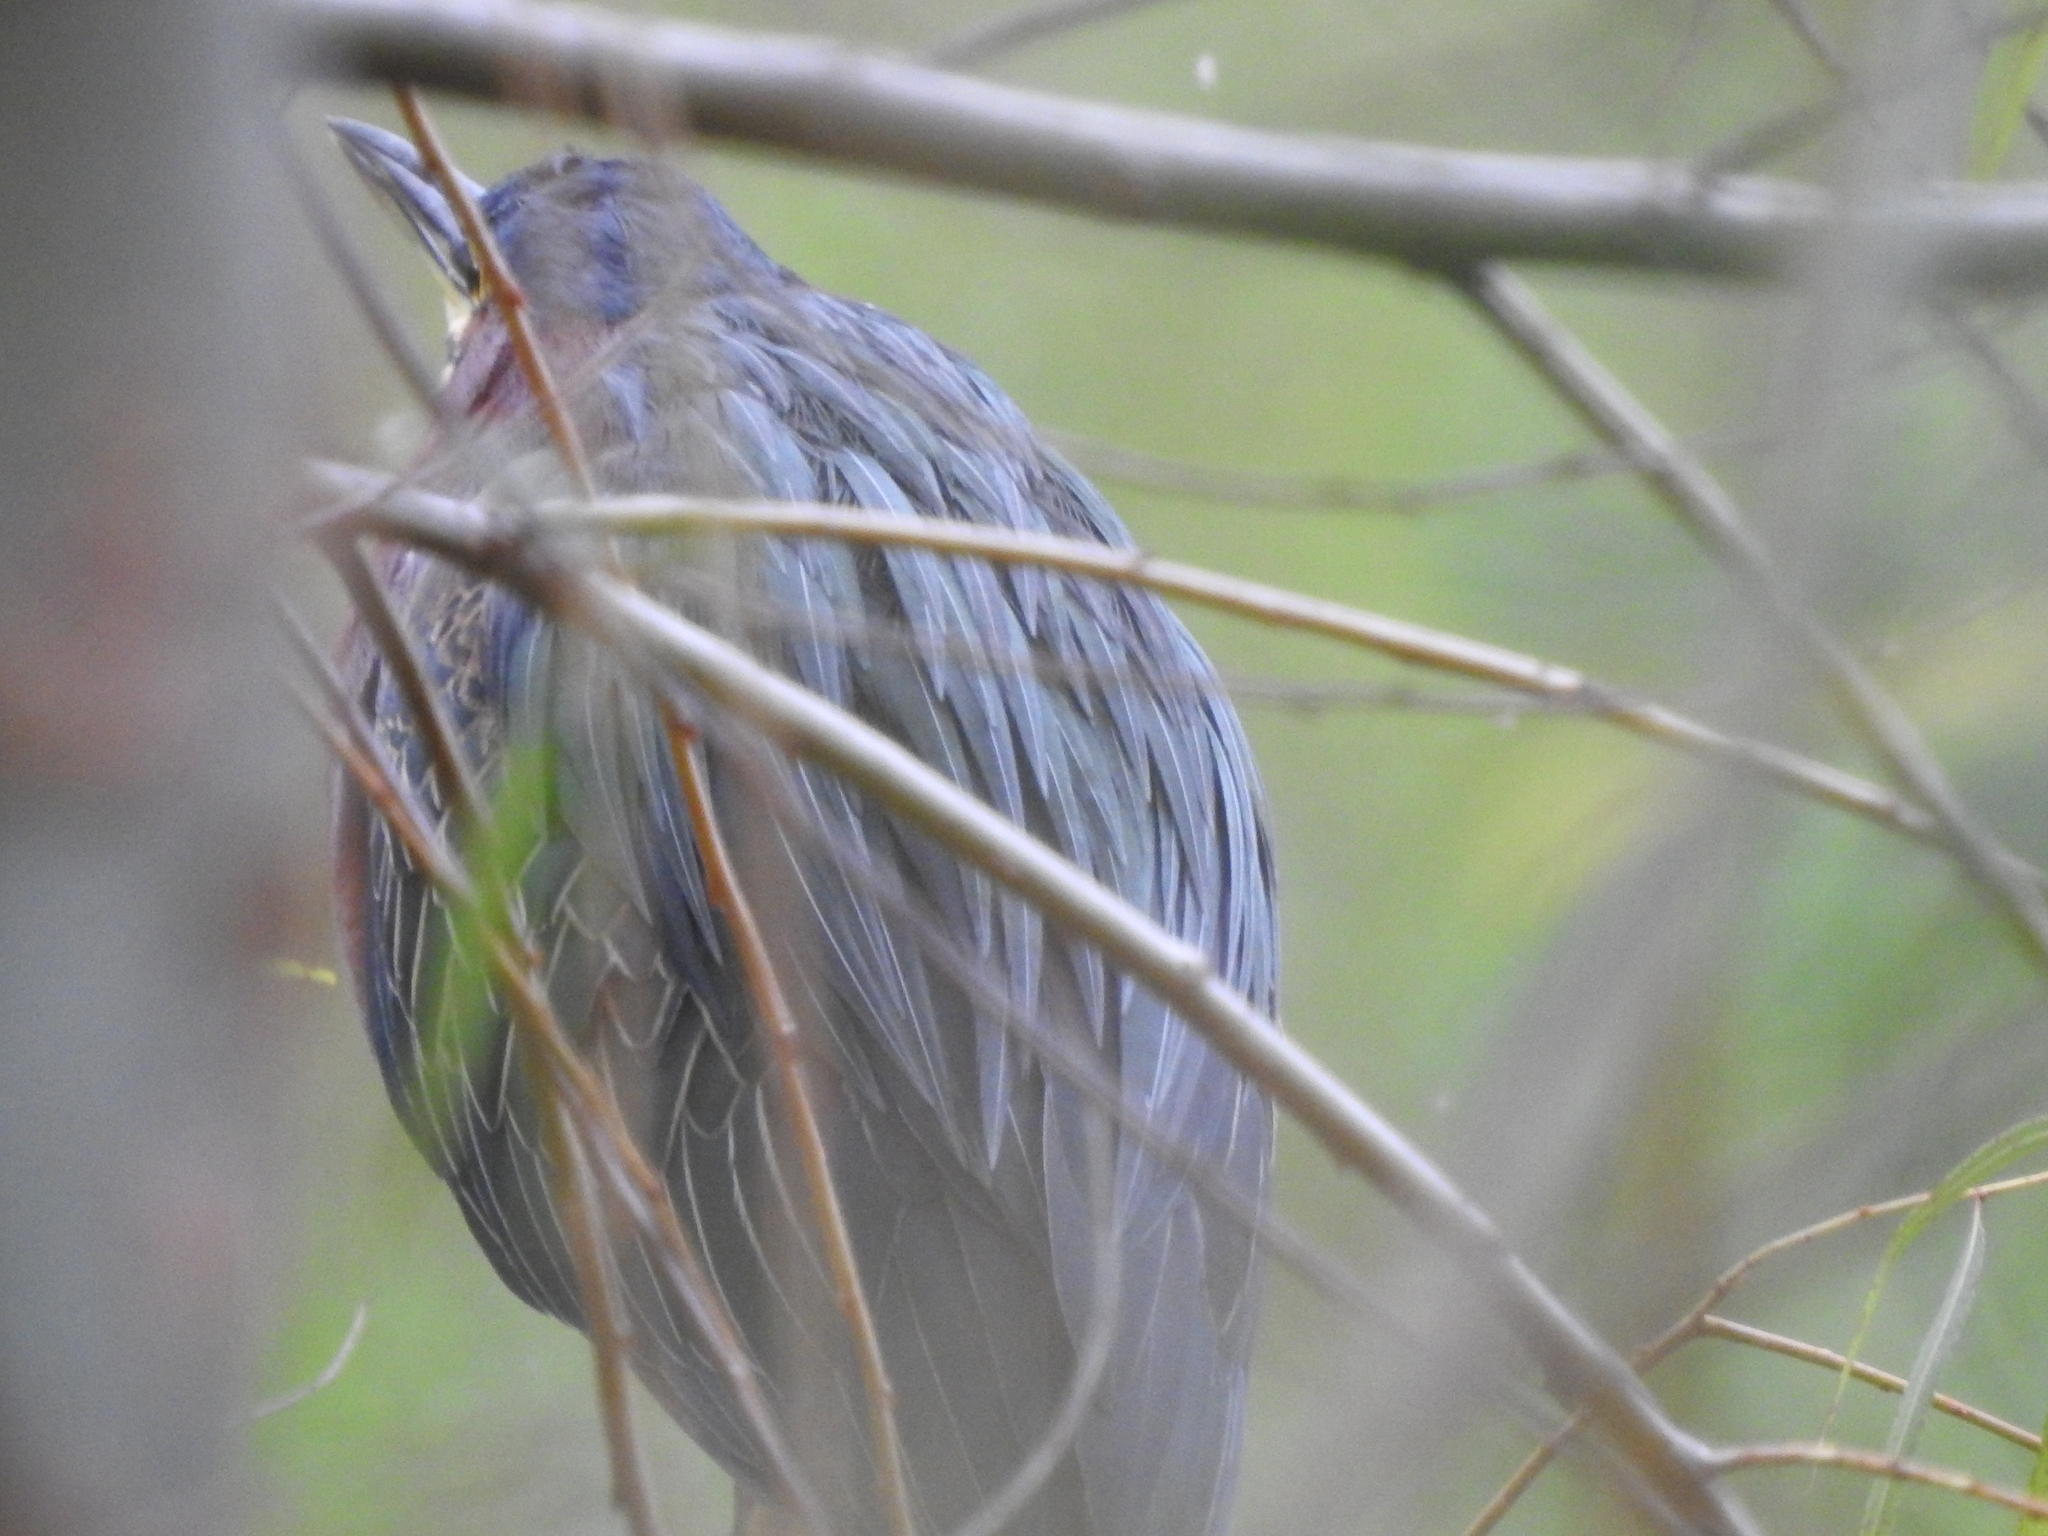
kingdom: Animalia
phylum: Chordata
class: Aves
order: Pelecaniformes
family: Ardeidae
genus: Butorides
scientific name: Butorides virescens
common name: Green heron
